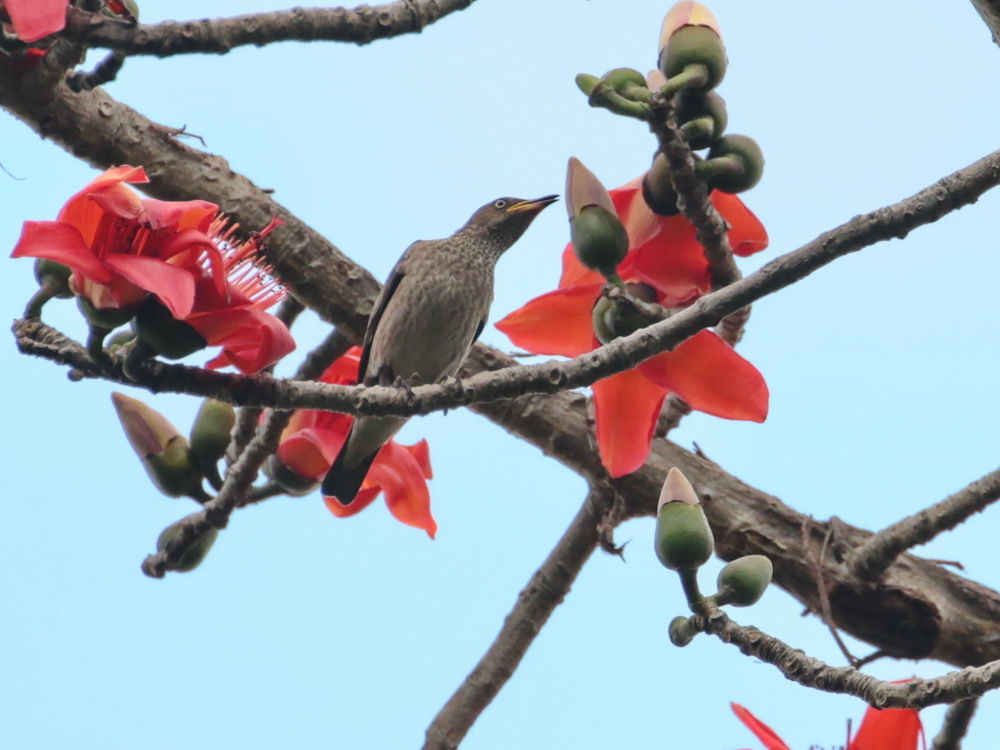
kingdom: Animalia
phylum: Chordata
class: Aves
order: Passeriformes
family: Sturnidae
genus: Saroglossa
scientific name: Saroglossa spiloptera
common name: Spot-winged starling
